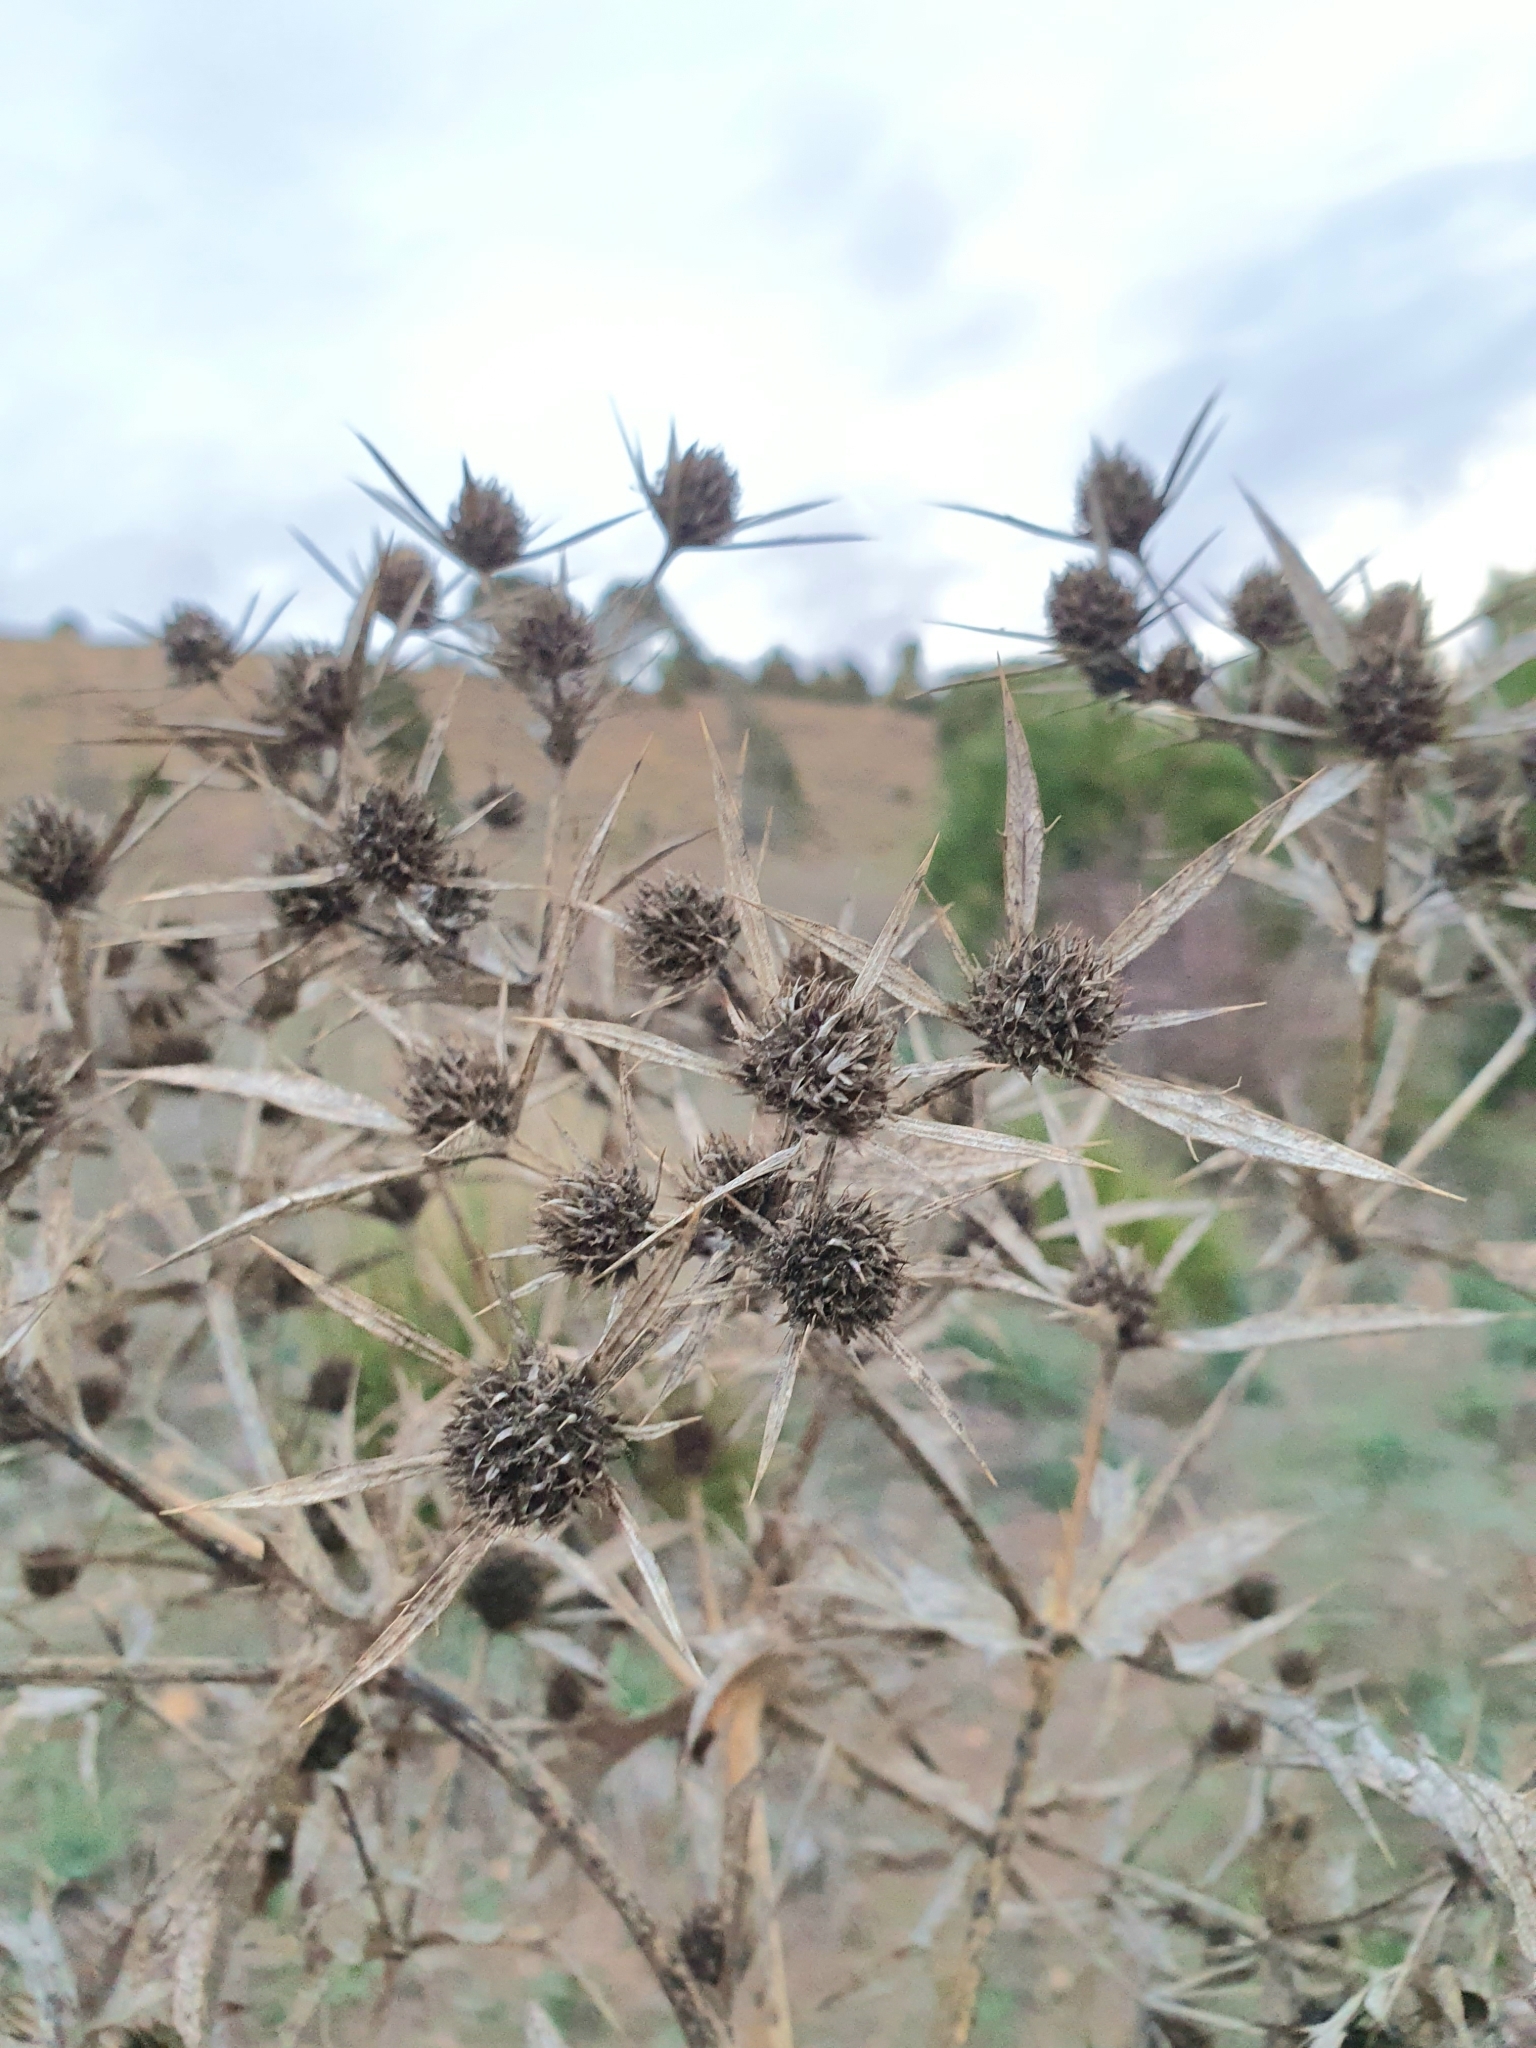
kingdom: Plantae
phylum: Tracheophyta
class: Magnoliopsida
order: Apiales
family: Apiaceae
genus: Eryngium
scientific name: Eryngium campestre
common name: Field eryngo
